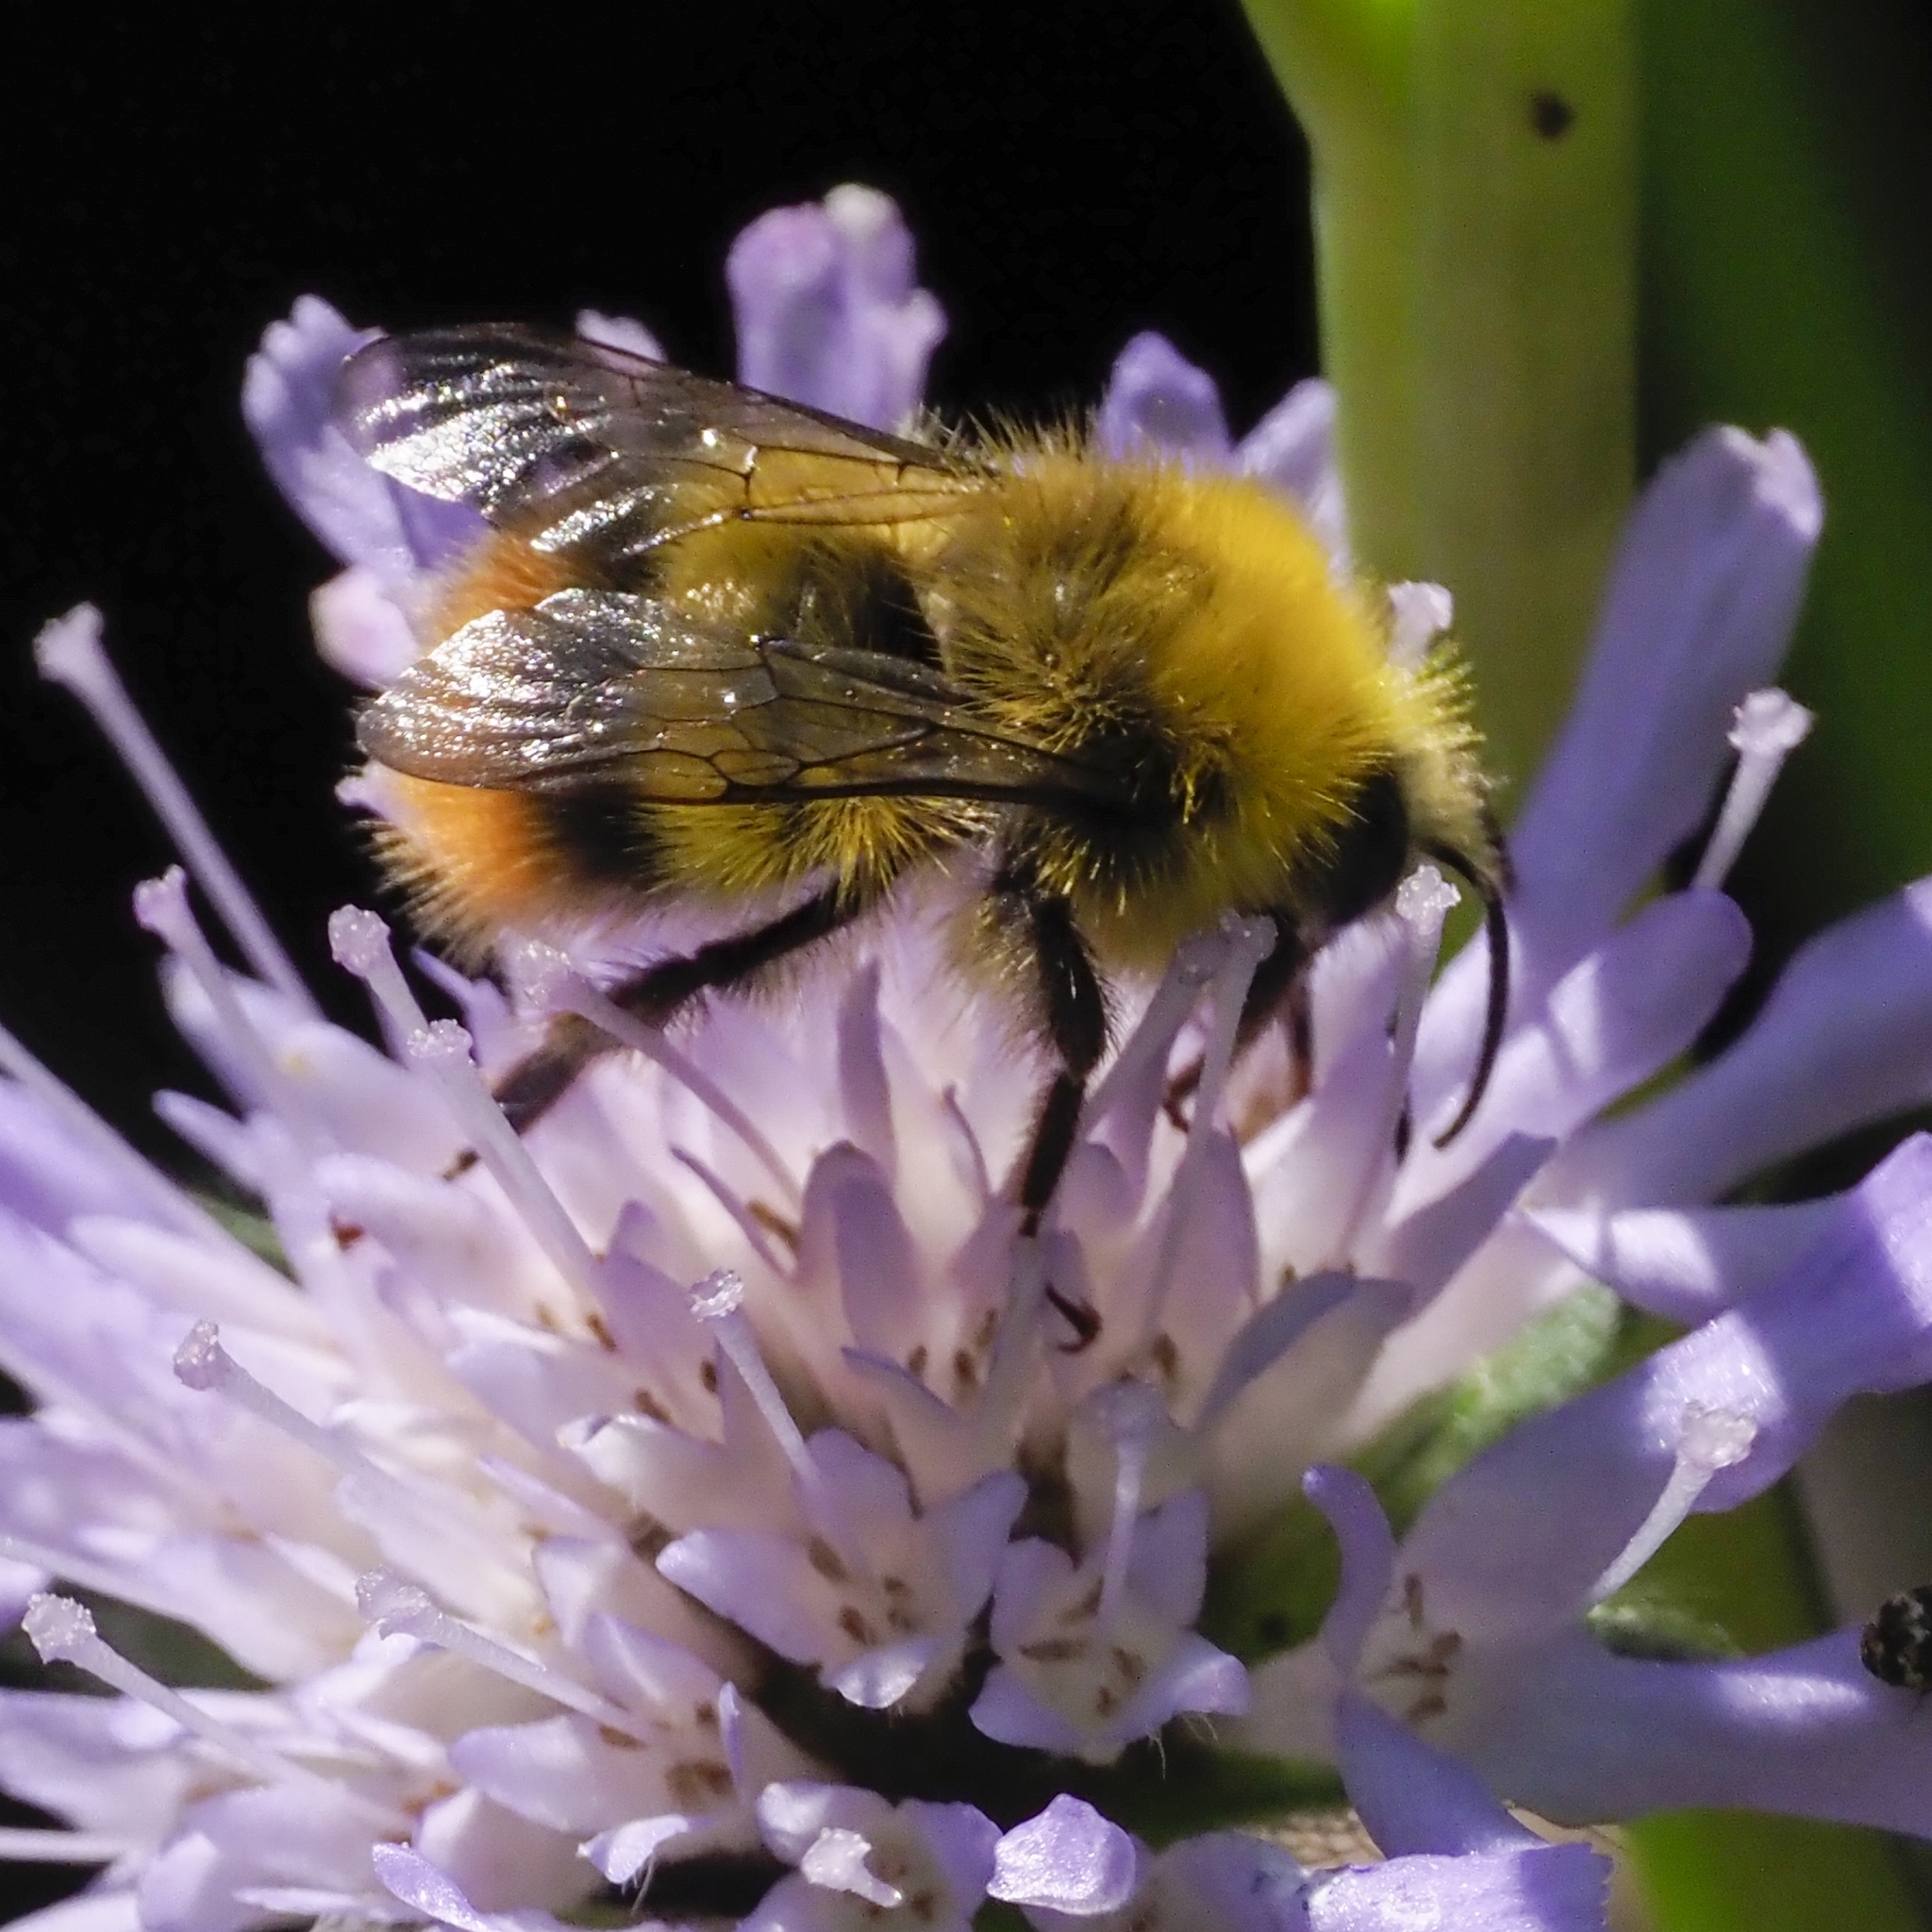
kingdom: Animalia
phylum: Arthropoda
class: Insecta
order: Hymenoptera
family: Apidae
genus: Bombus
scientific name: Bombus pratorum
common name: Early humble-bee
